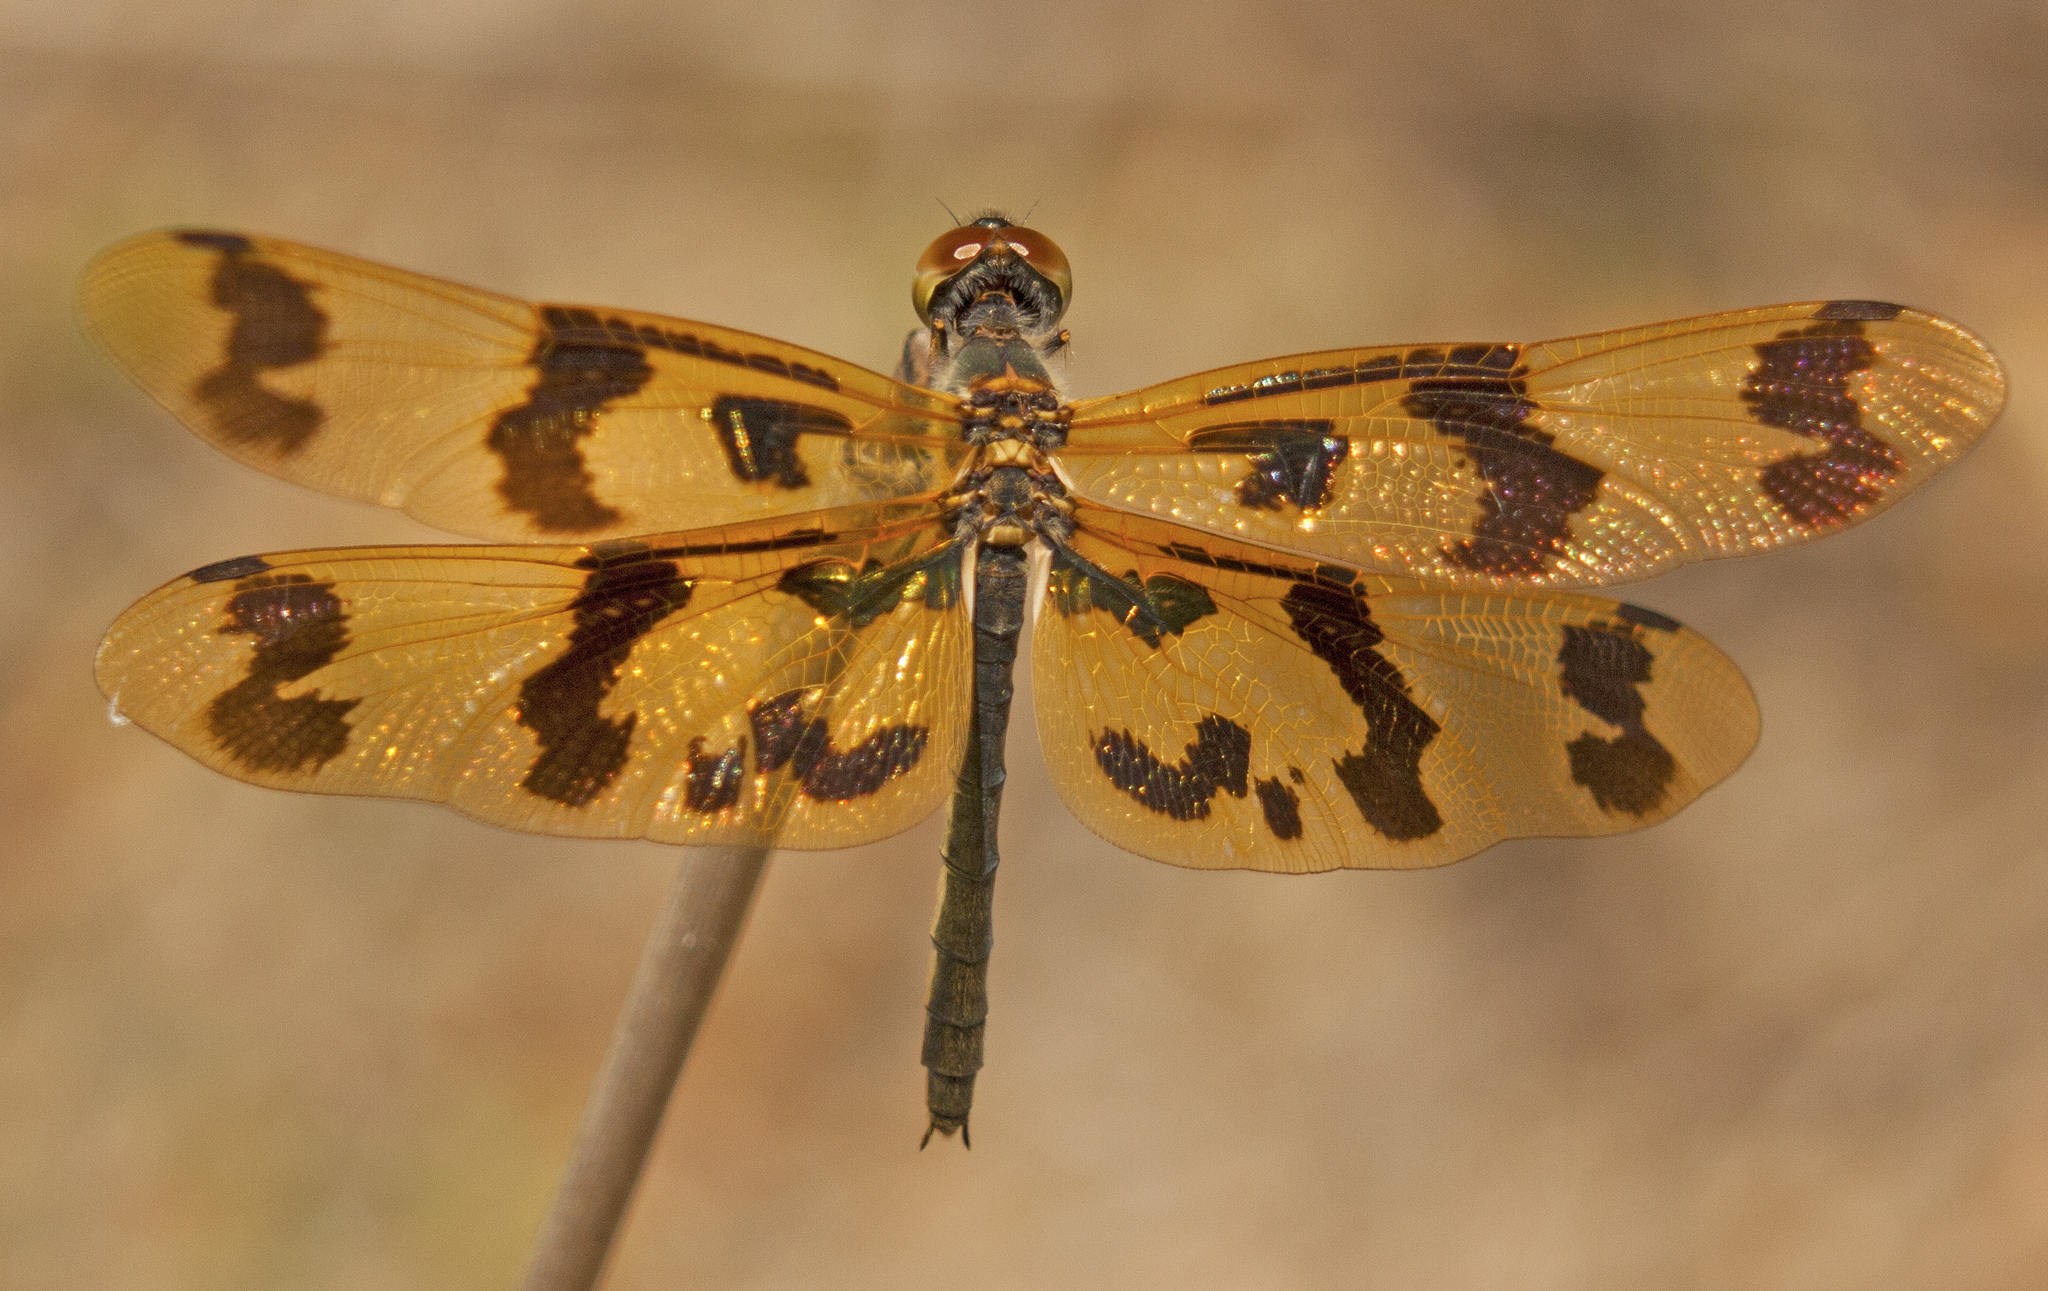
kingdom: Animalia
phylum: Arthropoda
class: Insecta
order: Odonata
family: Libellulidae
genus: Rhyothemis
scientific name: Rhyothemis graphiptera
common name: Graphic flutterer
